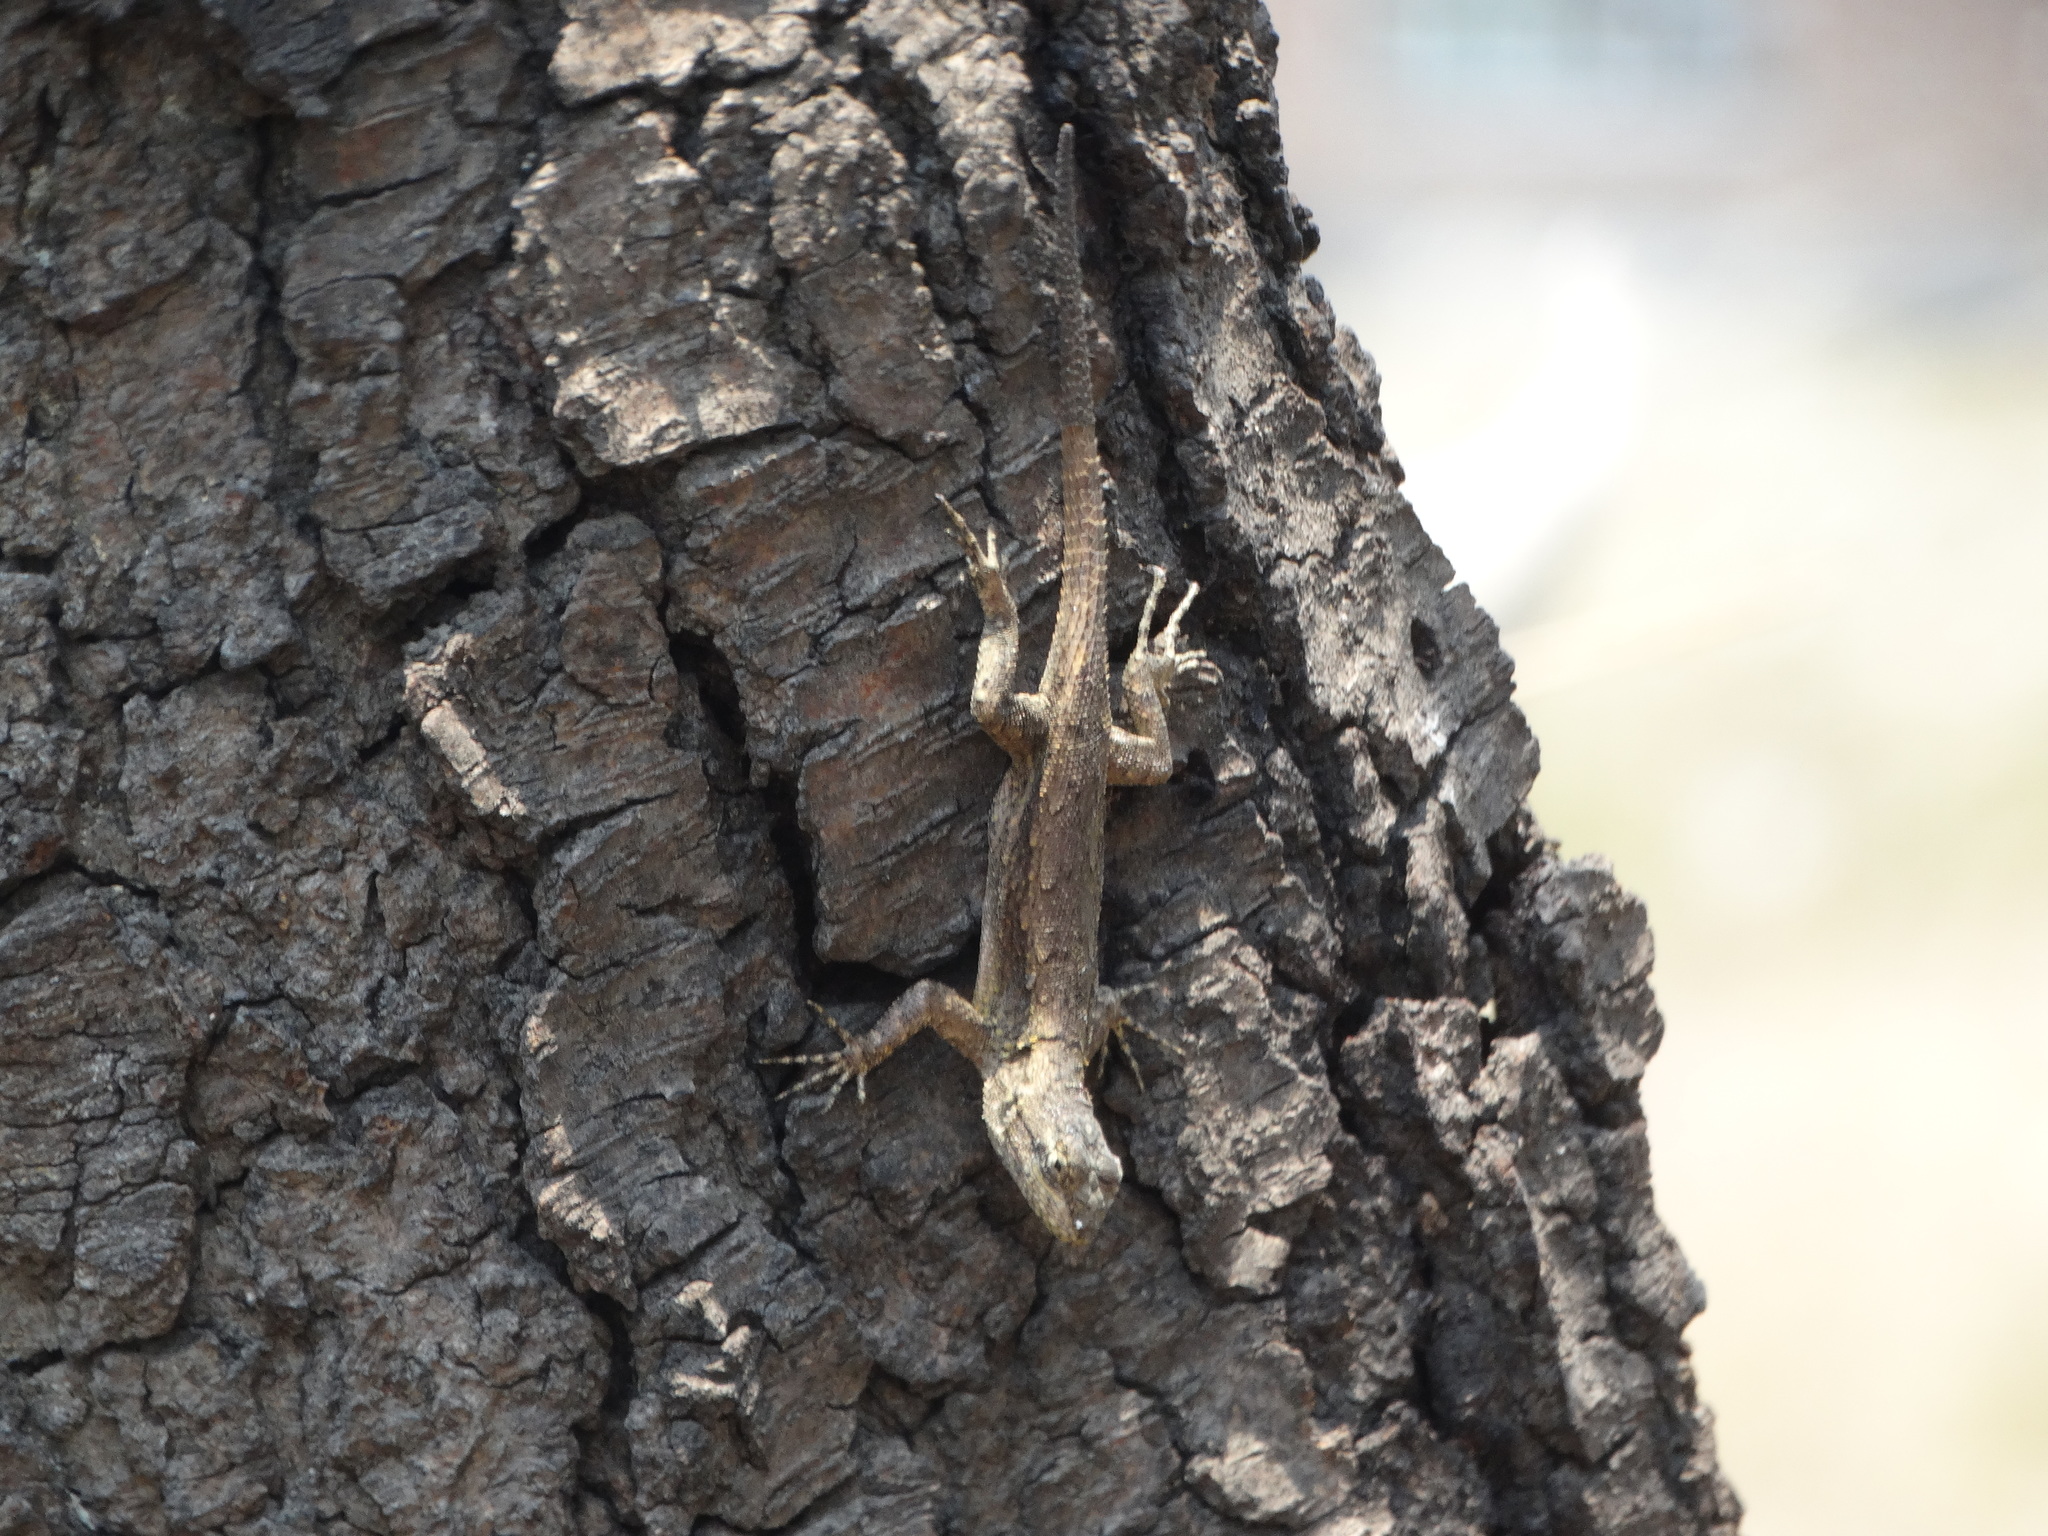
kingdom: Animalia
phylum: Chordata
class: Squamata
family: Phrynosomatidae
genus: Sceloporus
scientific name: Sceloporus grammicus
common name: Mesquite lizard
